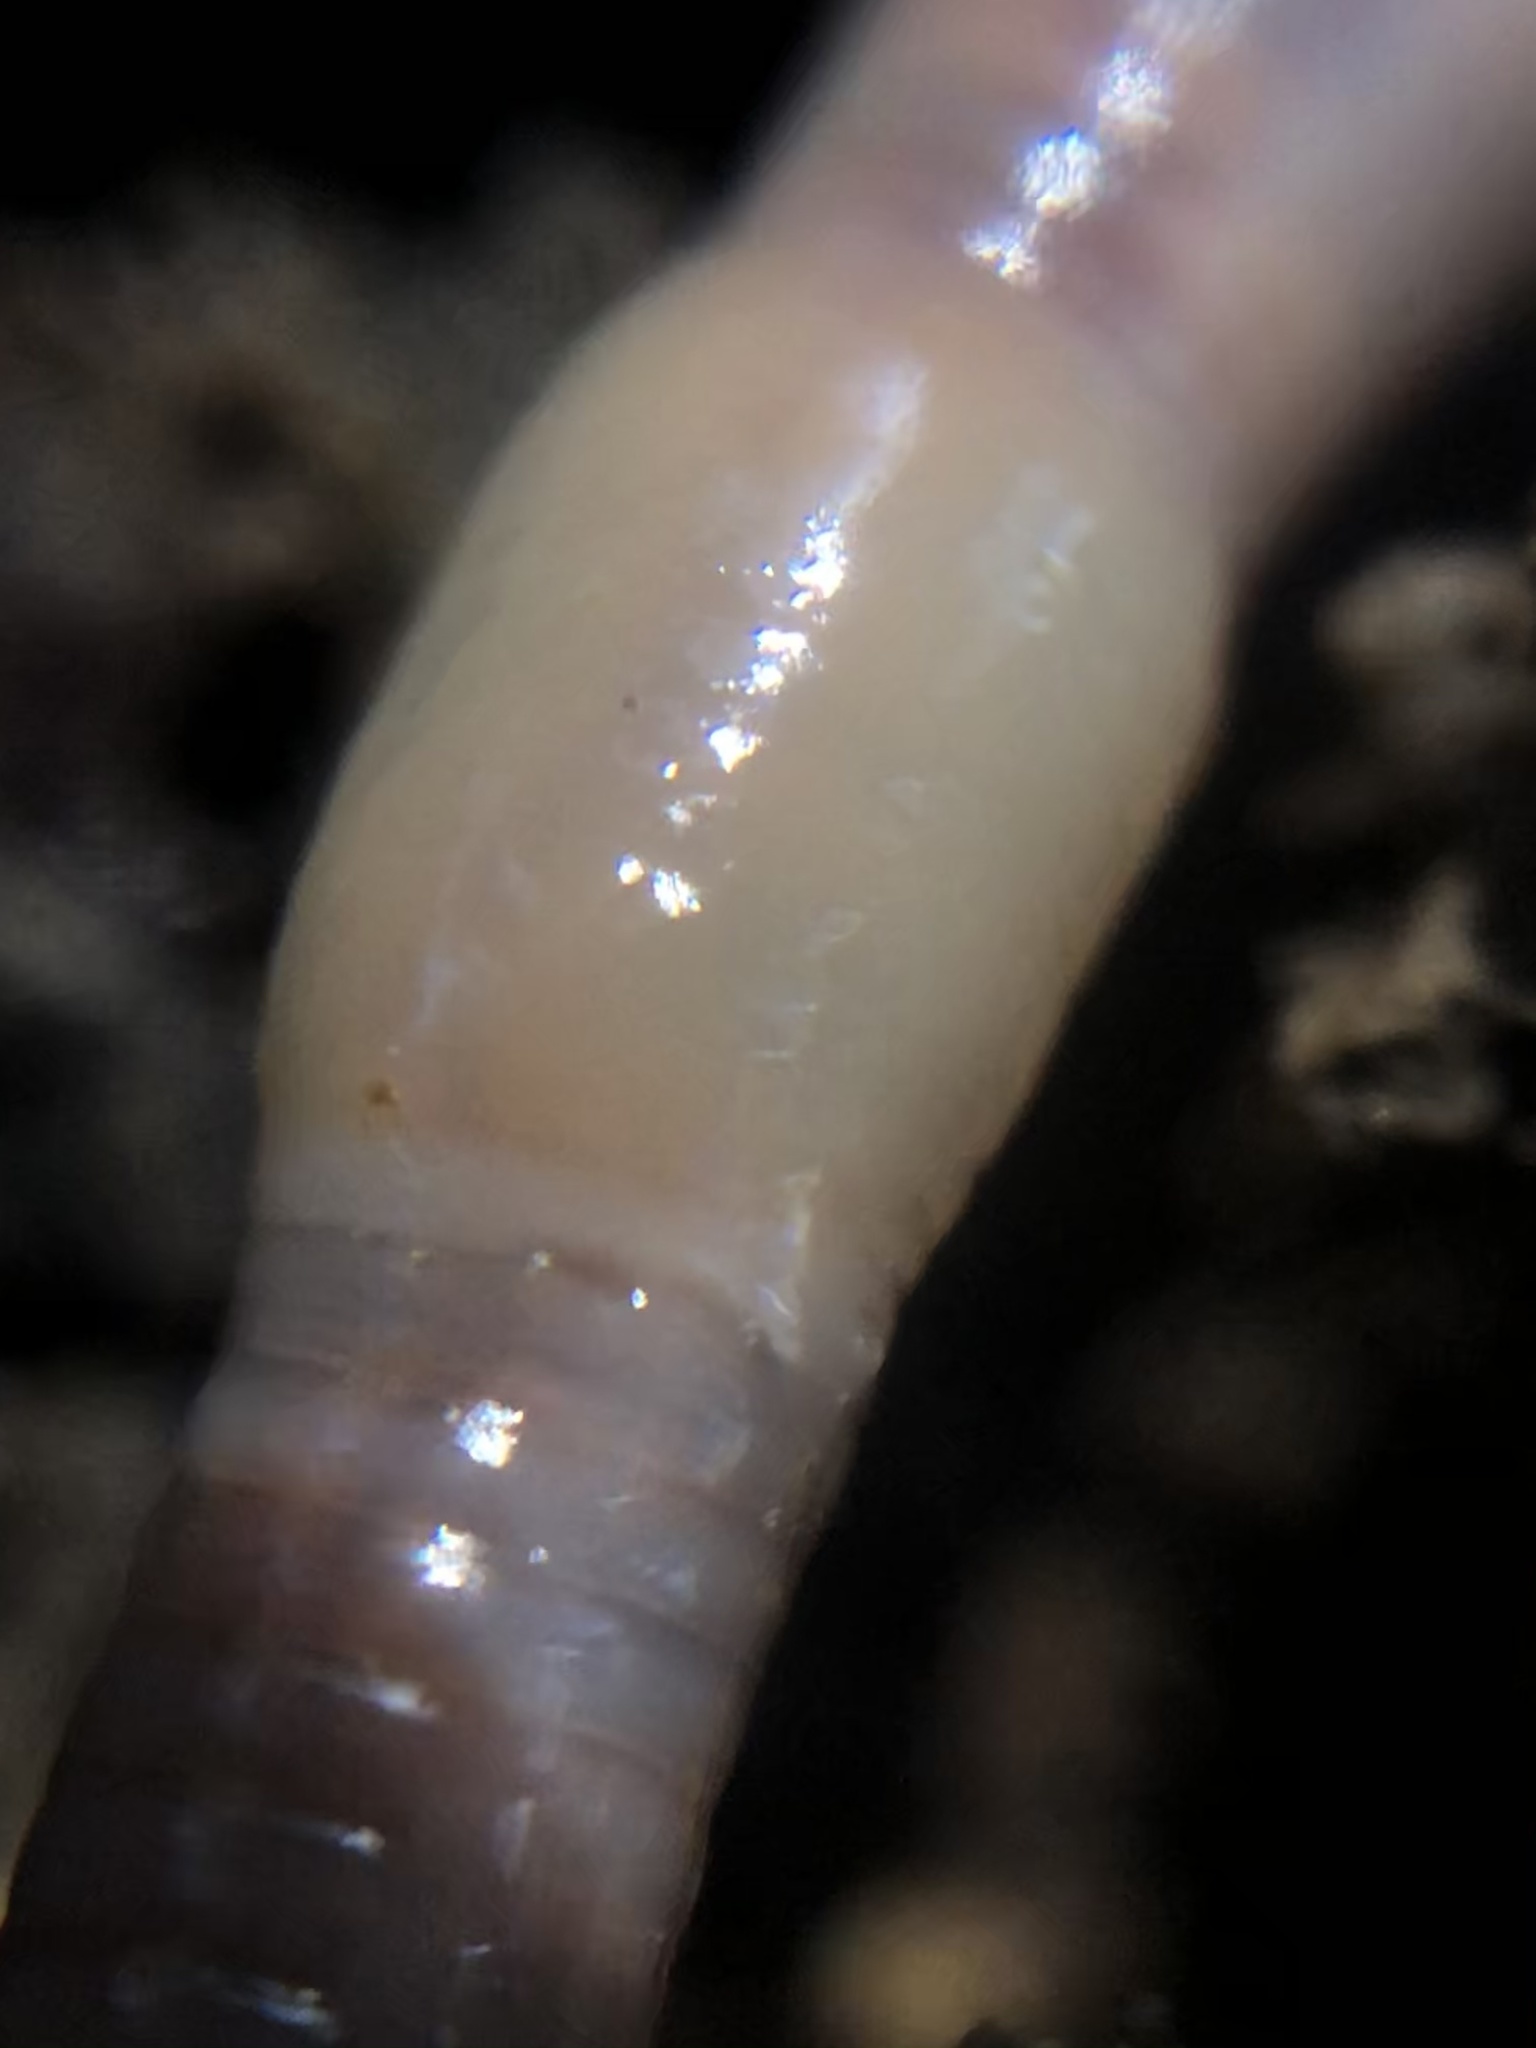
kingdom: Animalia
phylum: Annelida
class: Clitellata
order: Crassiclitellata
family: Lumbricidae
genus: Octolasion
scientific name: Octolasion tyrtaeum
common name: Woodland white worm
